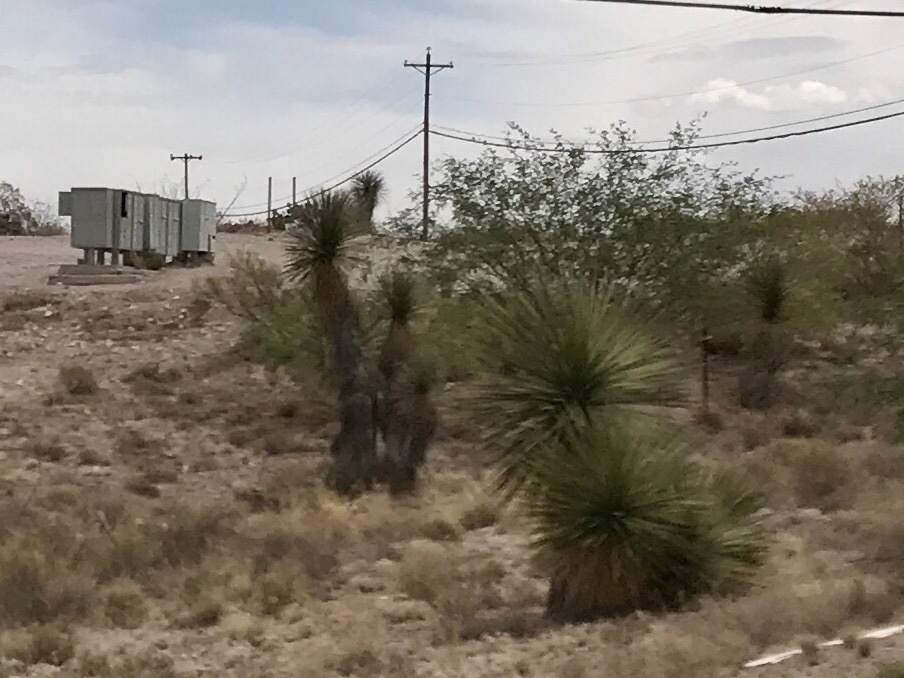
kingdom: Plantae
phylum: Tracheophyta
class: Liliopsida
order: Asparagales
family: Asparagaceae
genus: Yucca
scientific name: Yucca elata
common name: Palmella
